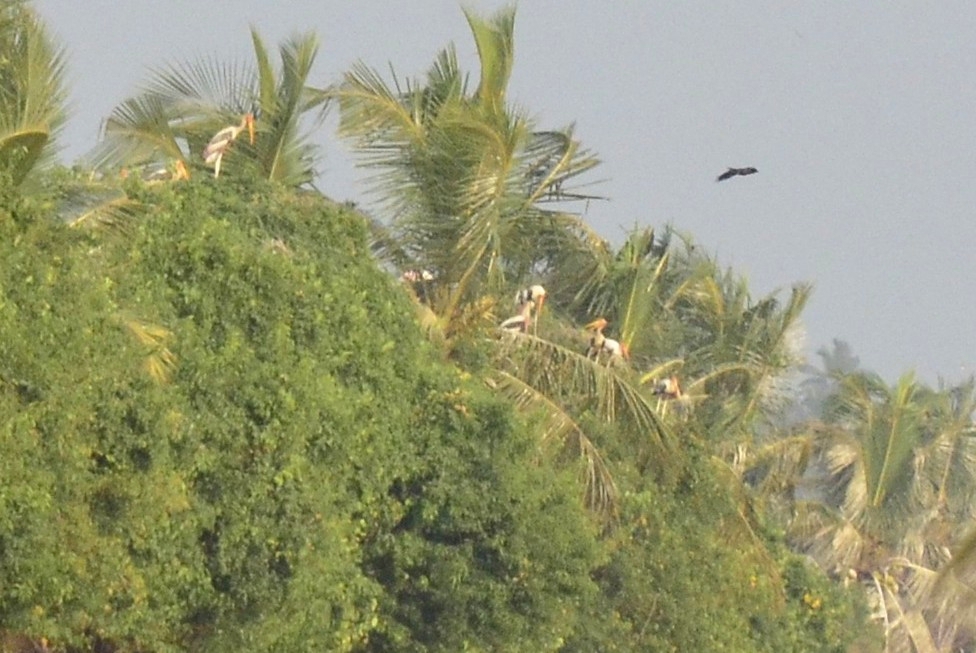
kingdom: Animalia
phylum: Chordata
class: Aves
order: Ciconiiformes
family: Ciconiidae
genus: Mycteria
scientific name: Mycteria leucocephala
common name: Painted stork
